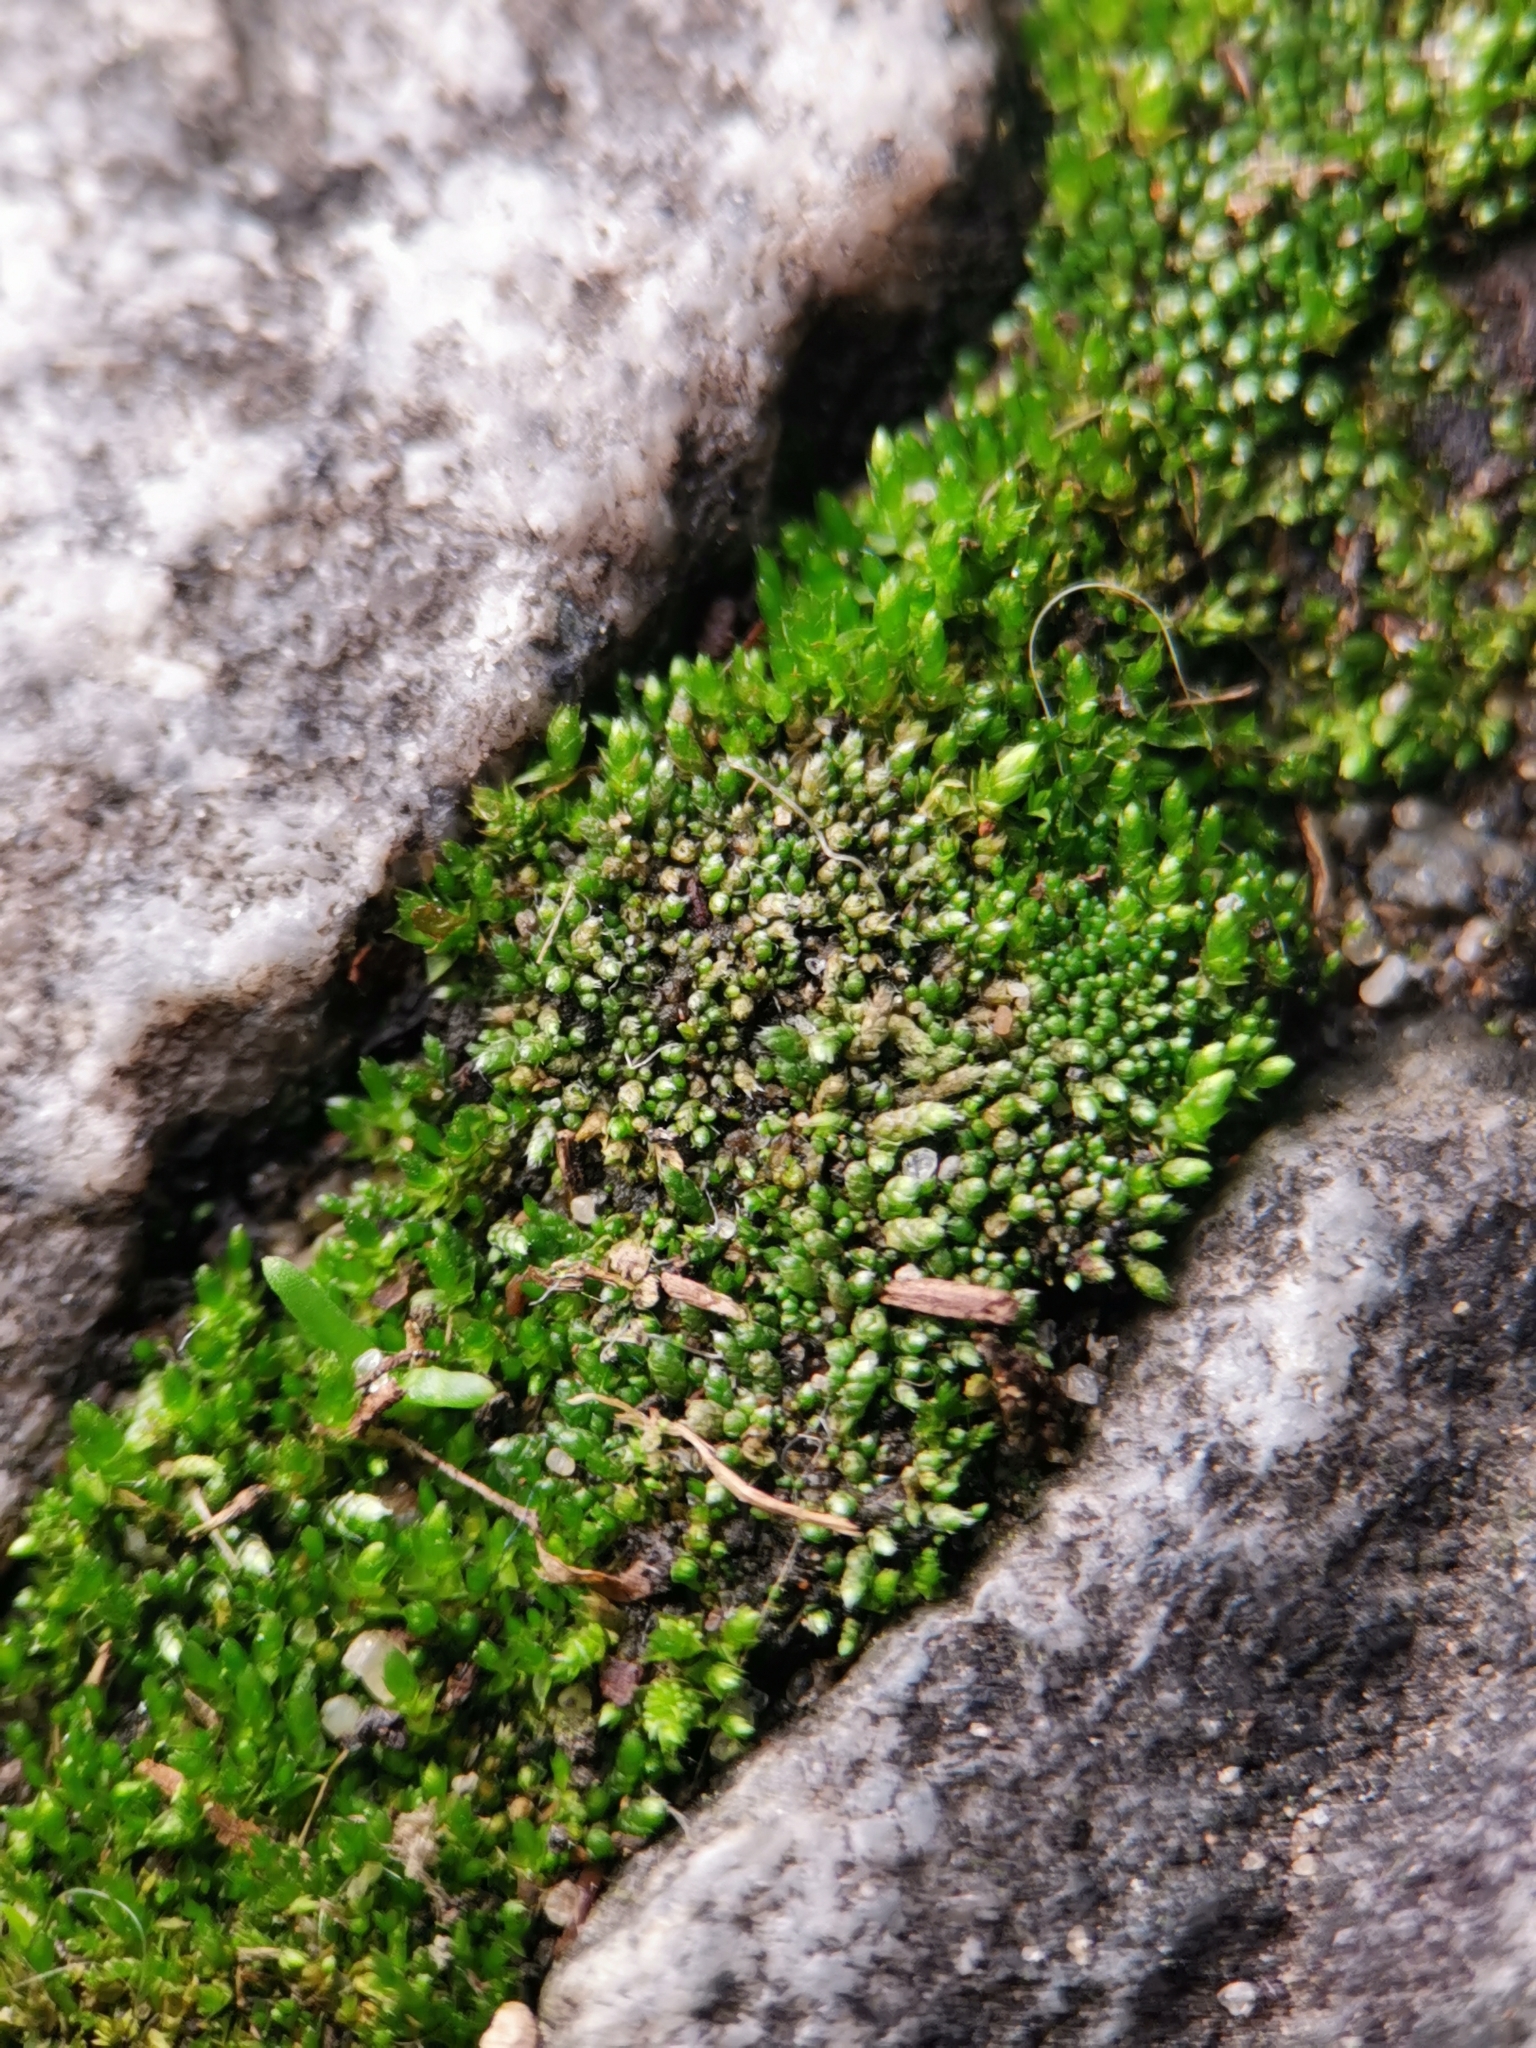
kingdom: Plantae
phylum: Bryophyta
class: Bryopsida
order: Bryales
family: Bryaceae
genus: Bryum
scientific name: Bryum argenteum
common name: Silver-moss
